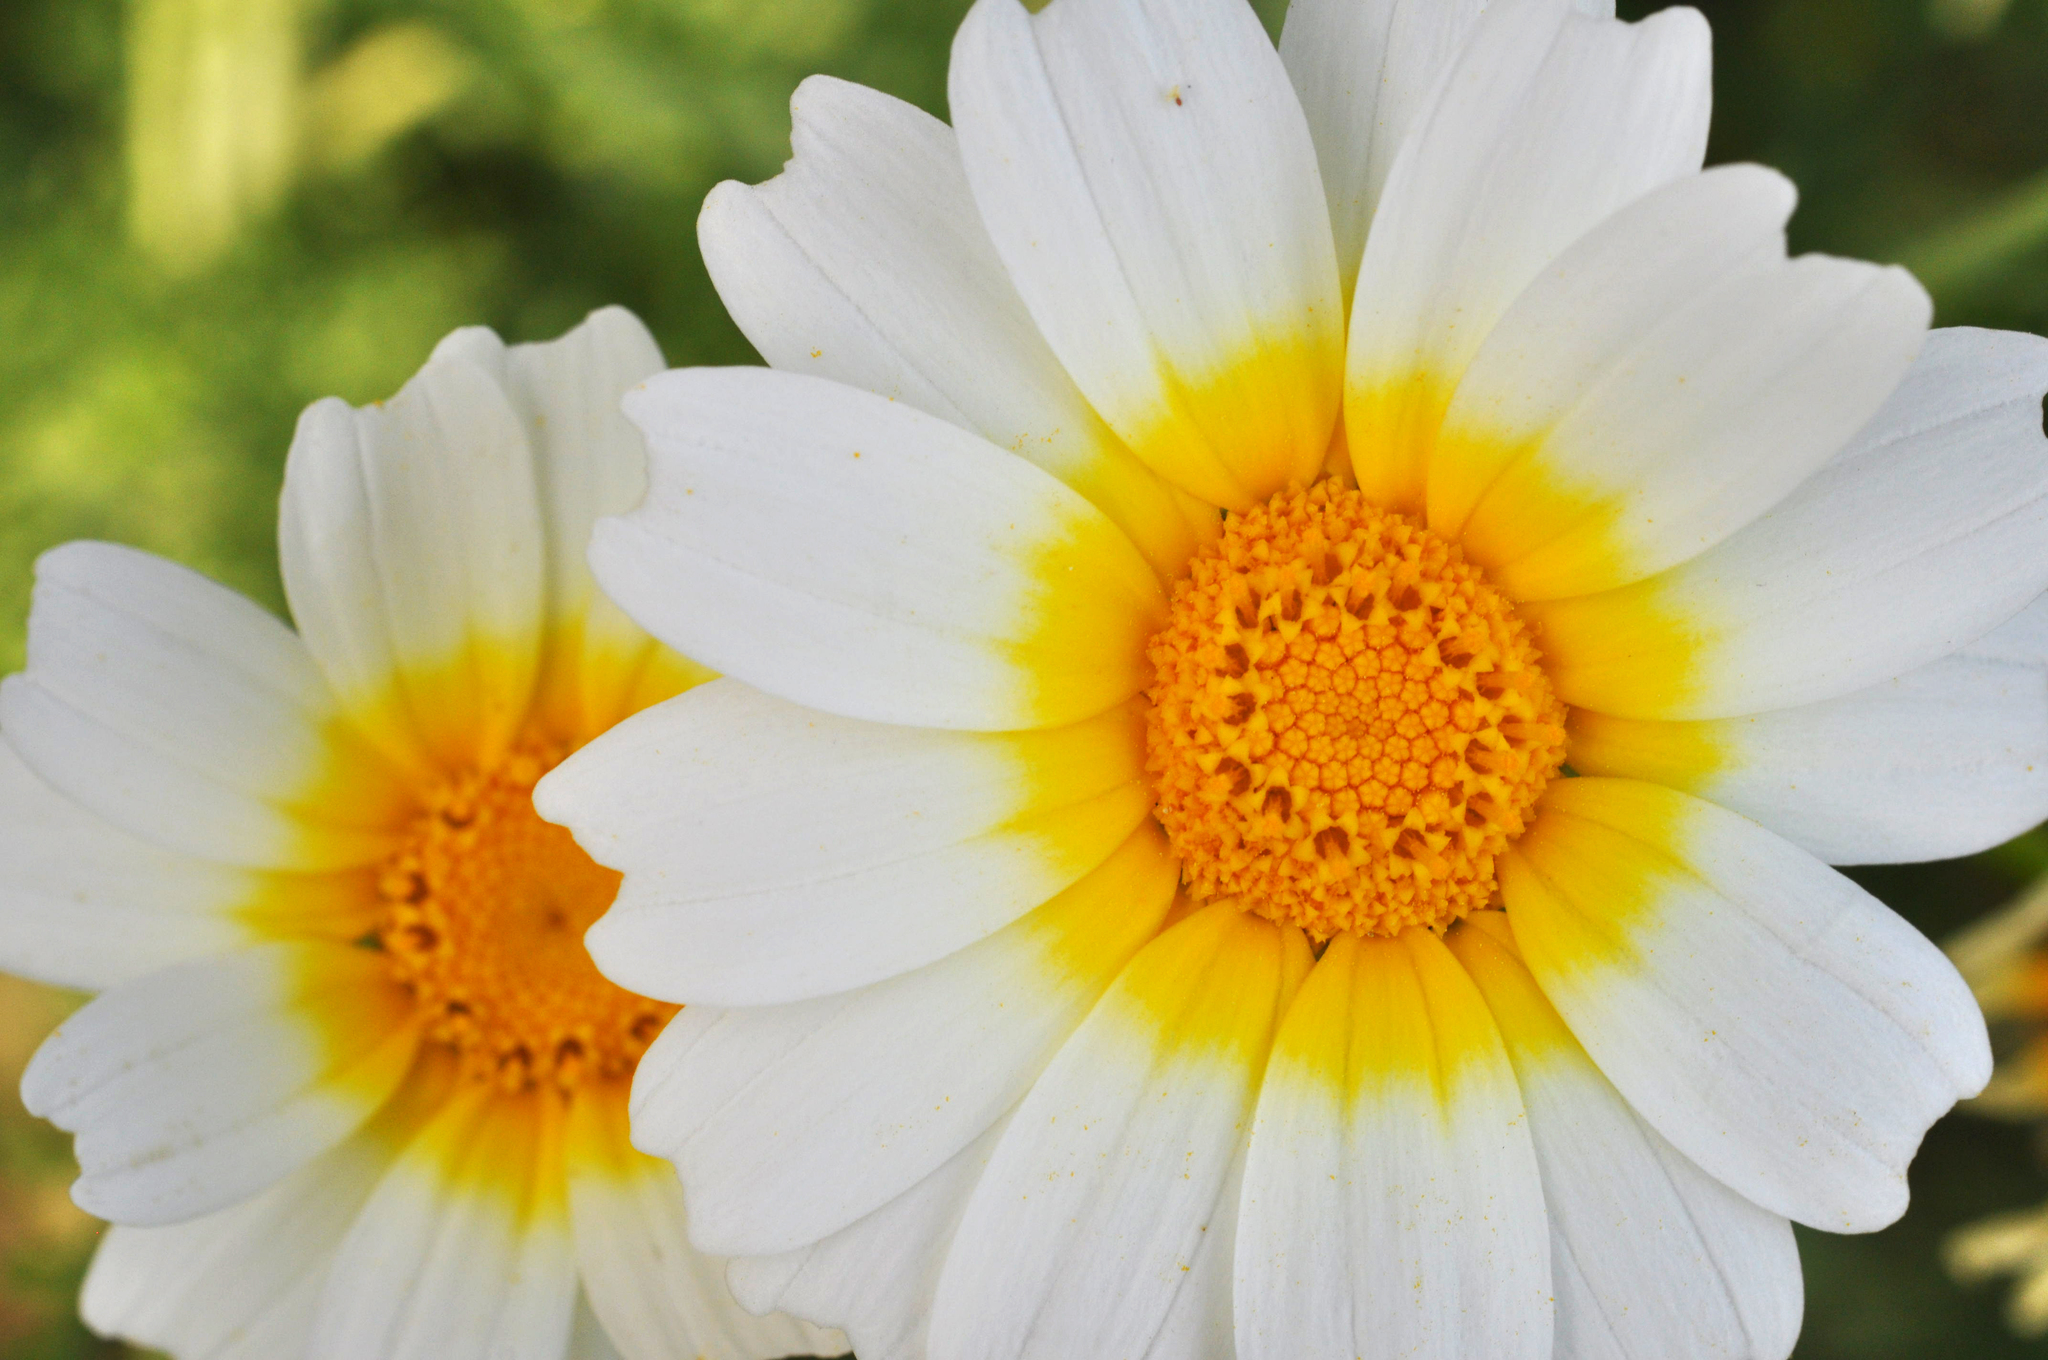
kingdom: Plantae
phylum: Tracheophyta
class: Magnoliopsida
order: Asterales
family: Asteraceae
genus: Glebionis
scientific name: Glebionis coronaria
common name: Crowndaisy
